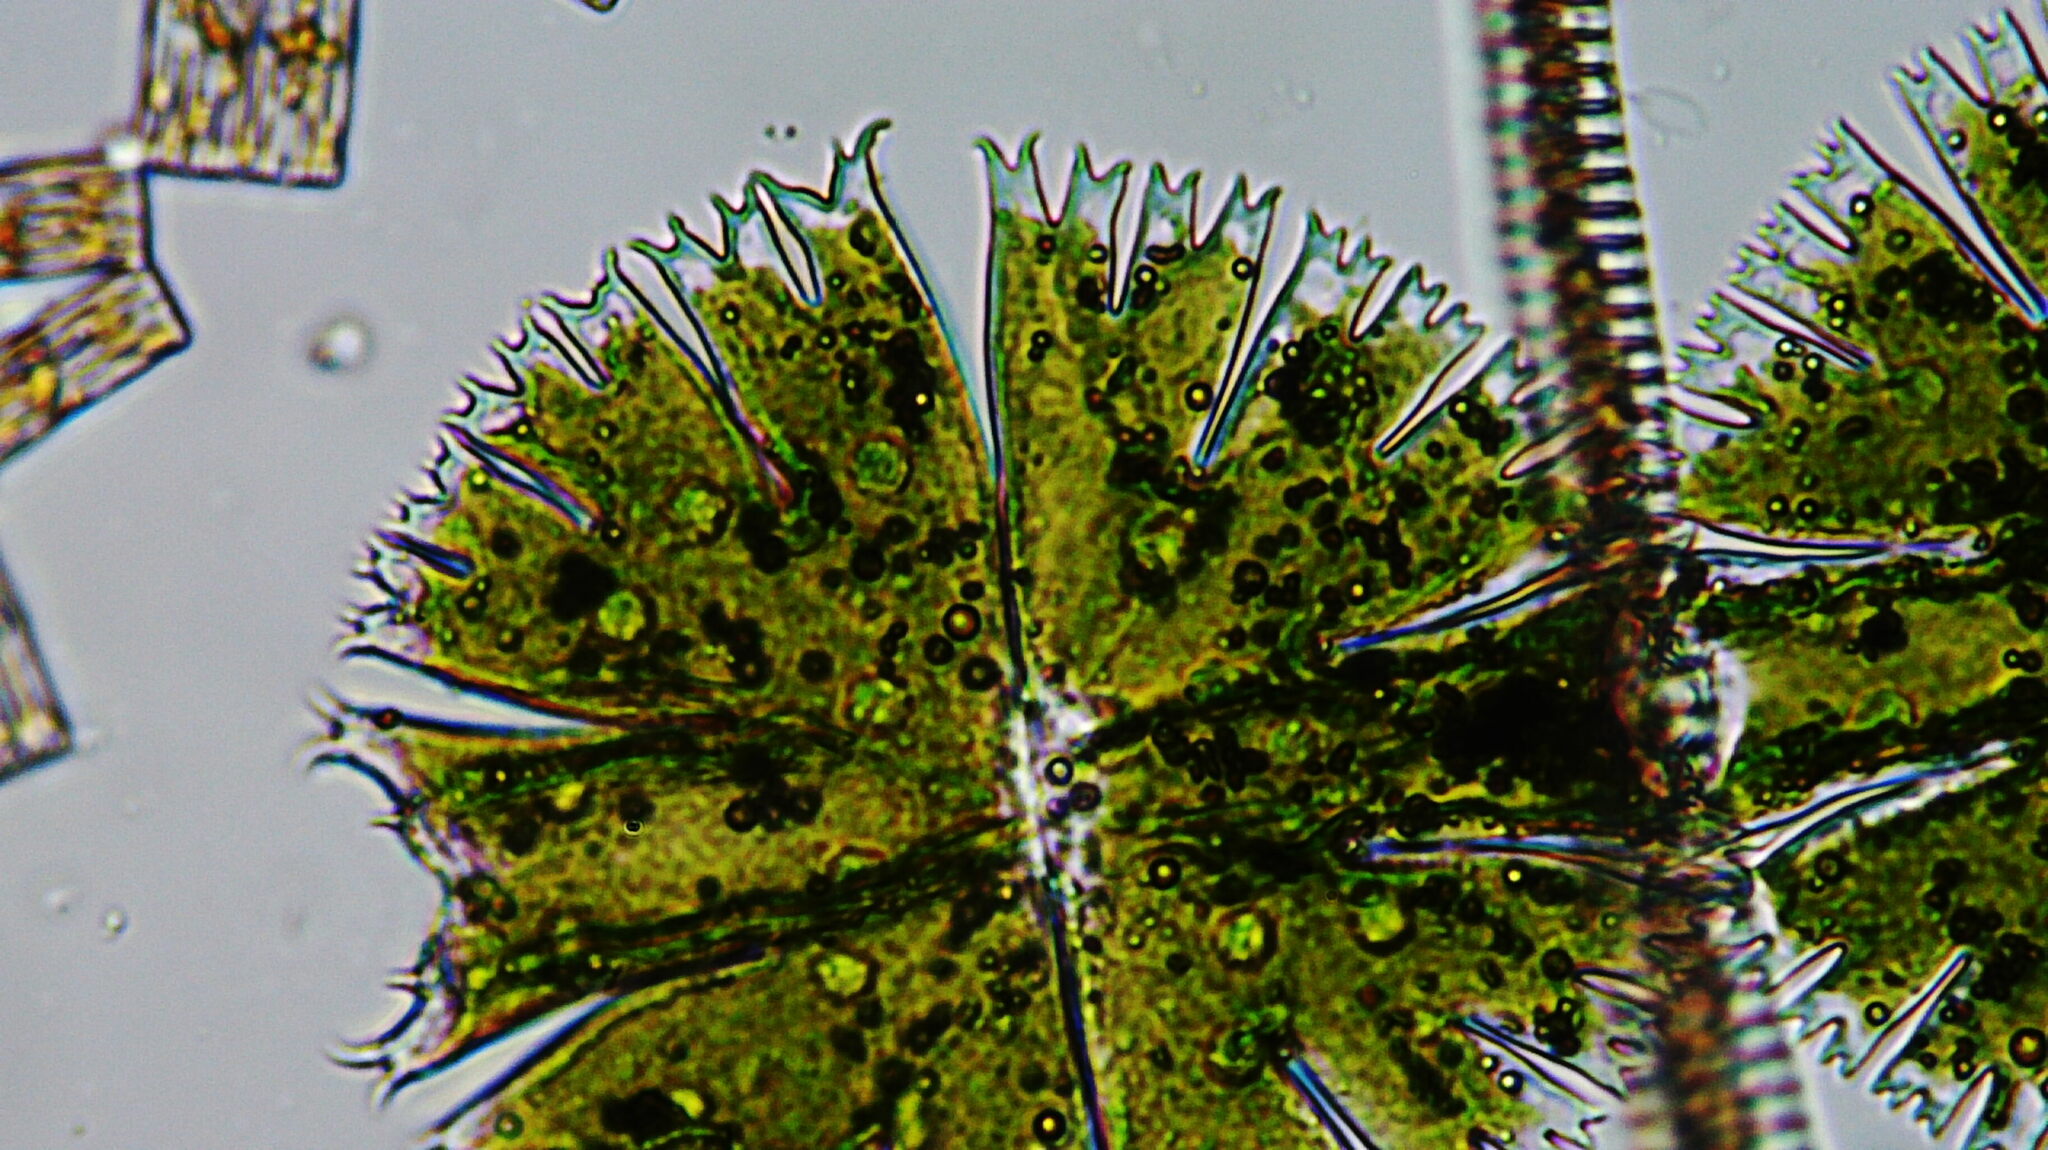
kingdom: Plantae
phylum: Charophyta
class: Conjugatophyceae
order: Desmidiales
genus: Micrasterias
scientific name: Micrasterias compereana
